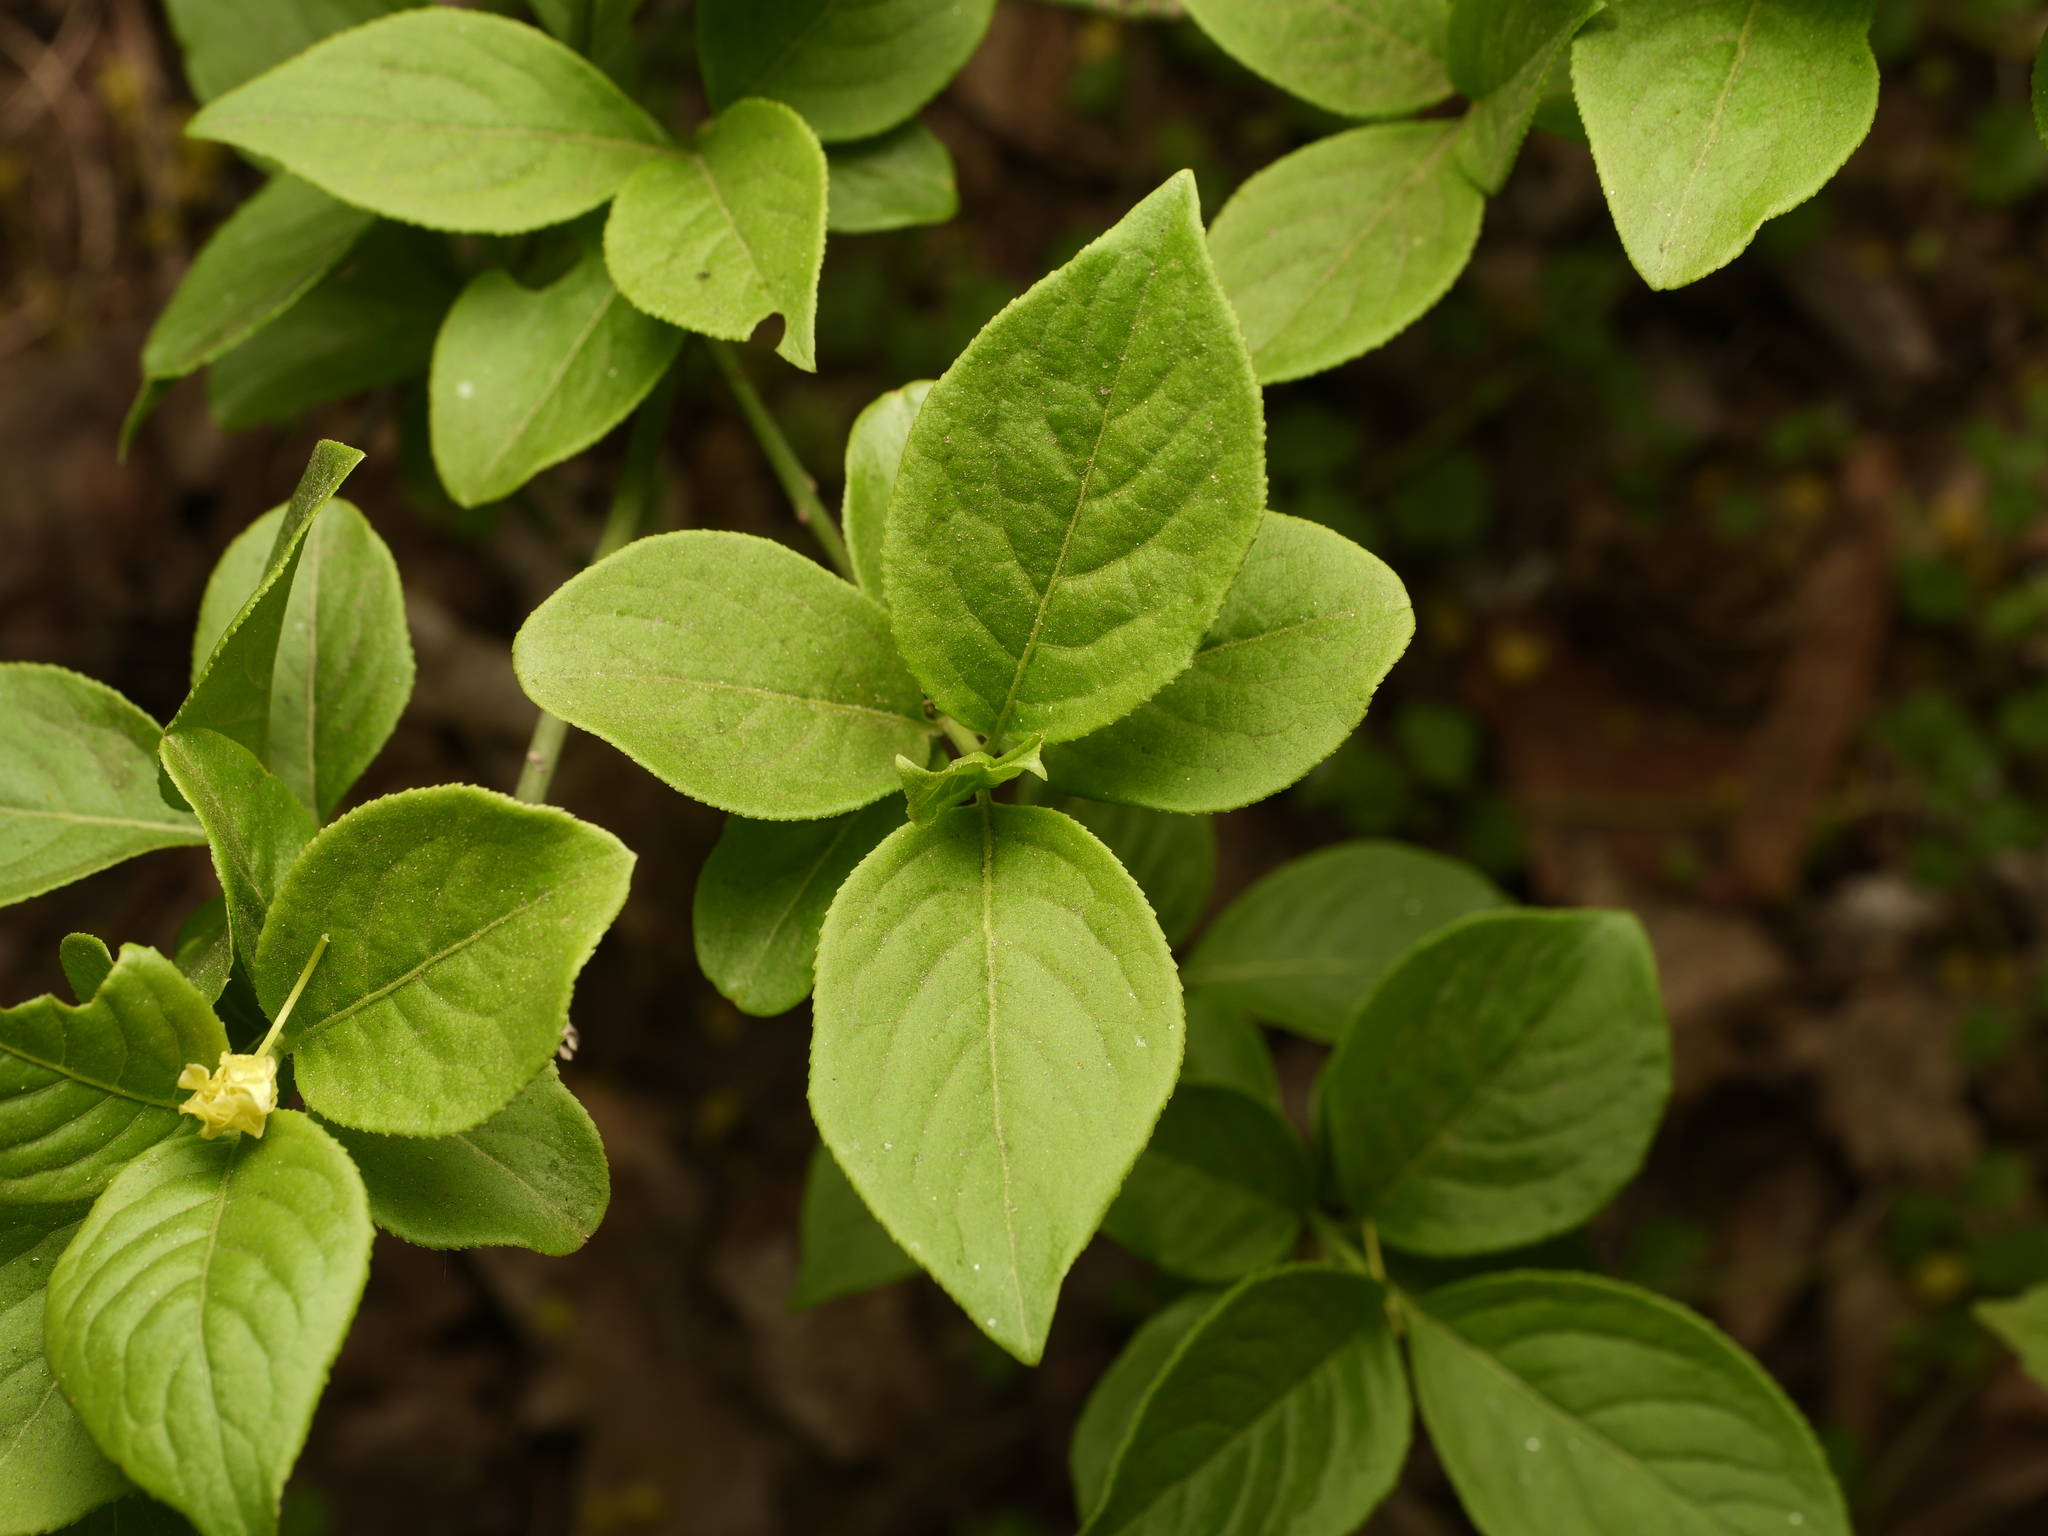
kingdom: Plantae
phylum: Tracheophyta
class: Magnoliopsida
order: Celastrales
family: Celastraceae
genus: Euonymus
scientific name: Euonymus europaeus
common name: Spindle
